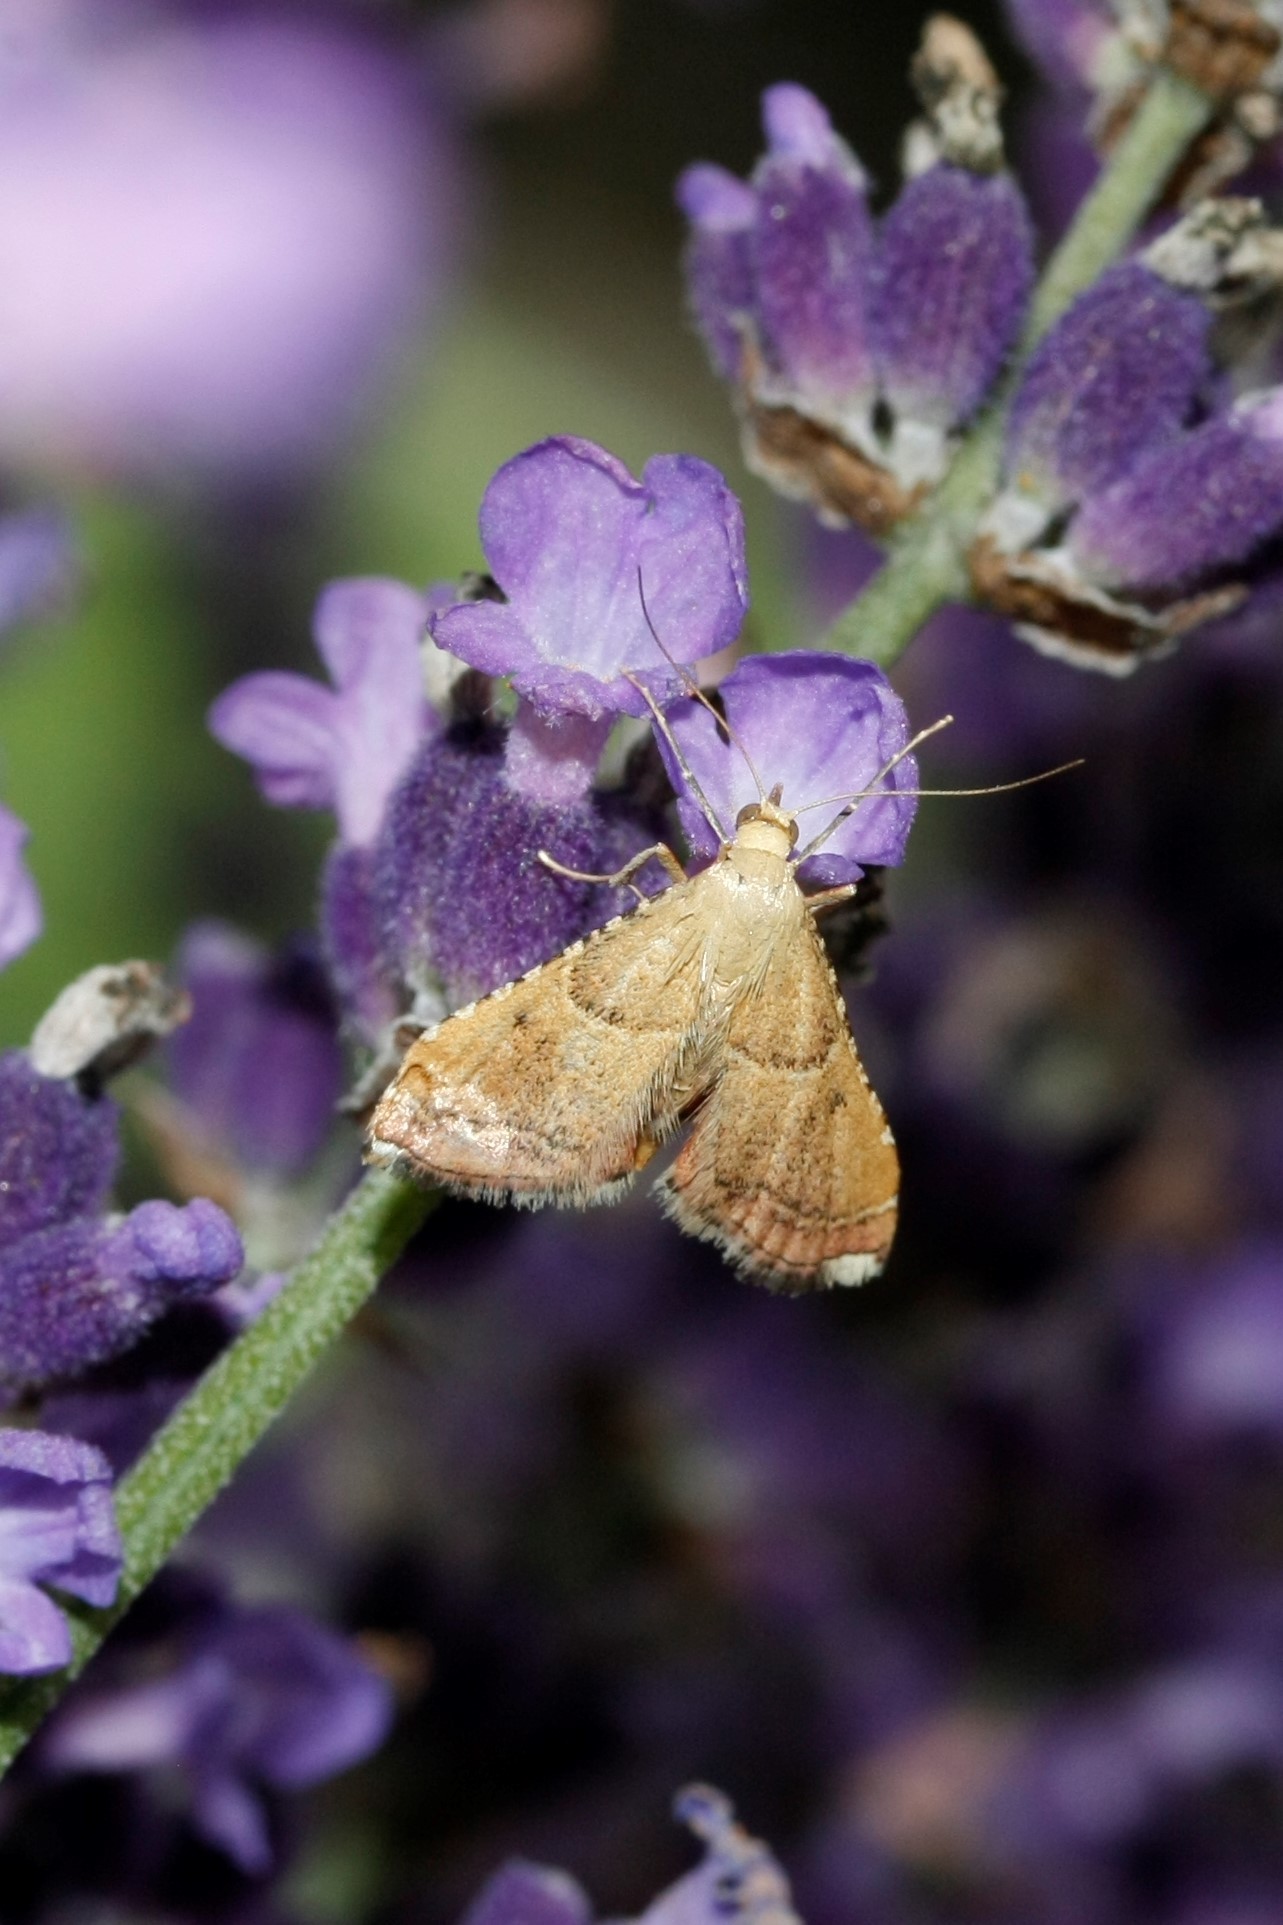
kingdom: Animalia
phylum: Arthropoda
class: Insecta
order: Lepidoptera
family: Pyralidae
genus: Endotricha
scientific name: Endotricha flammealis
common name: Rosy tabby
